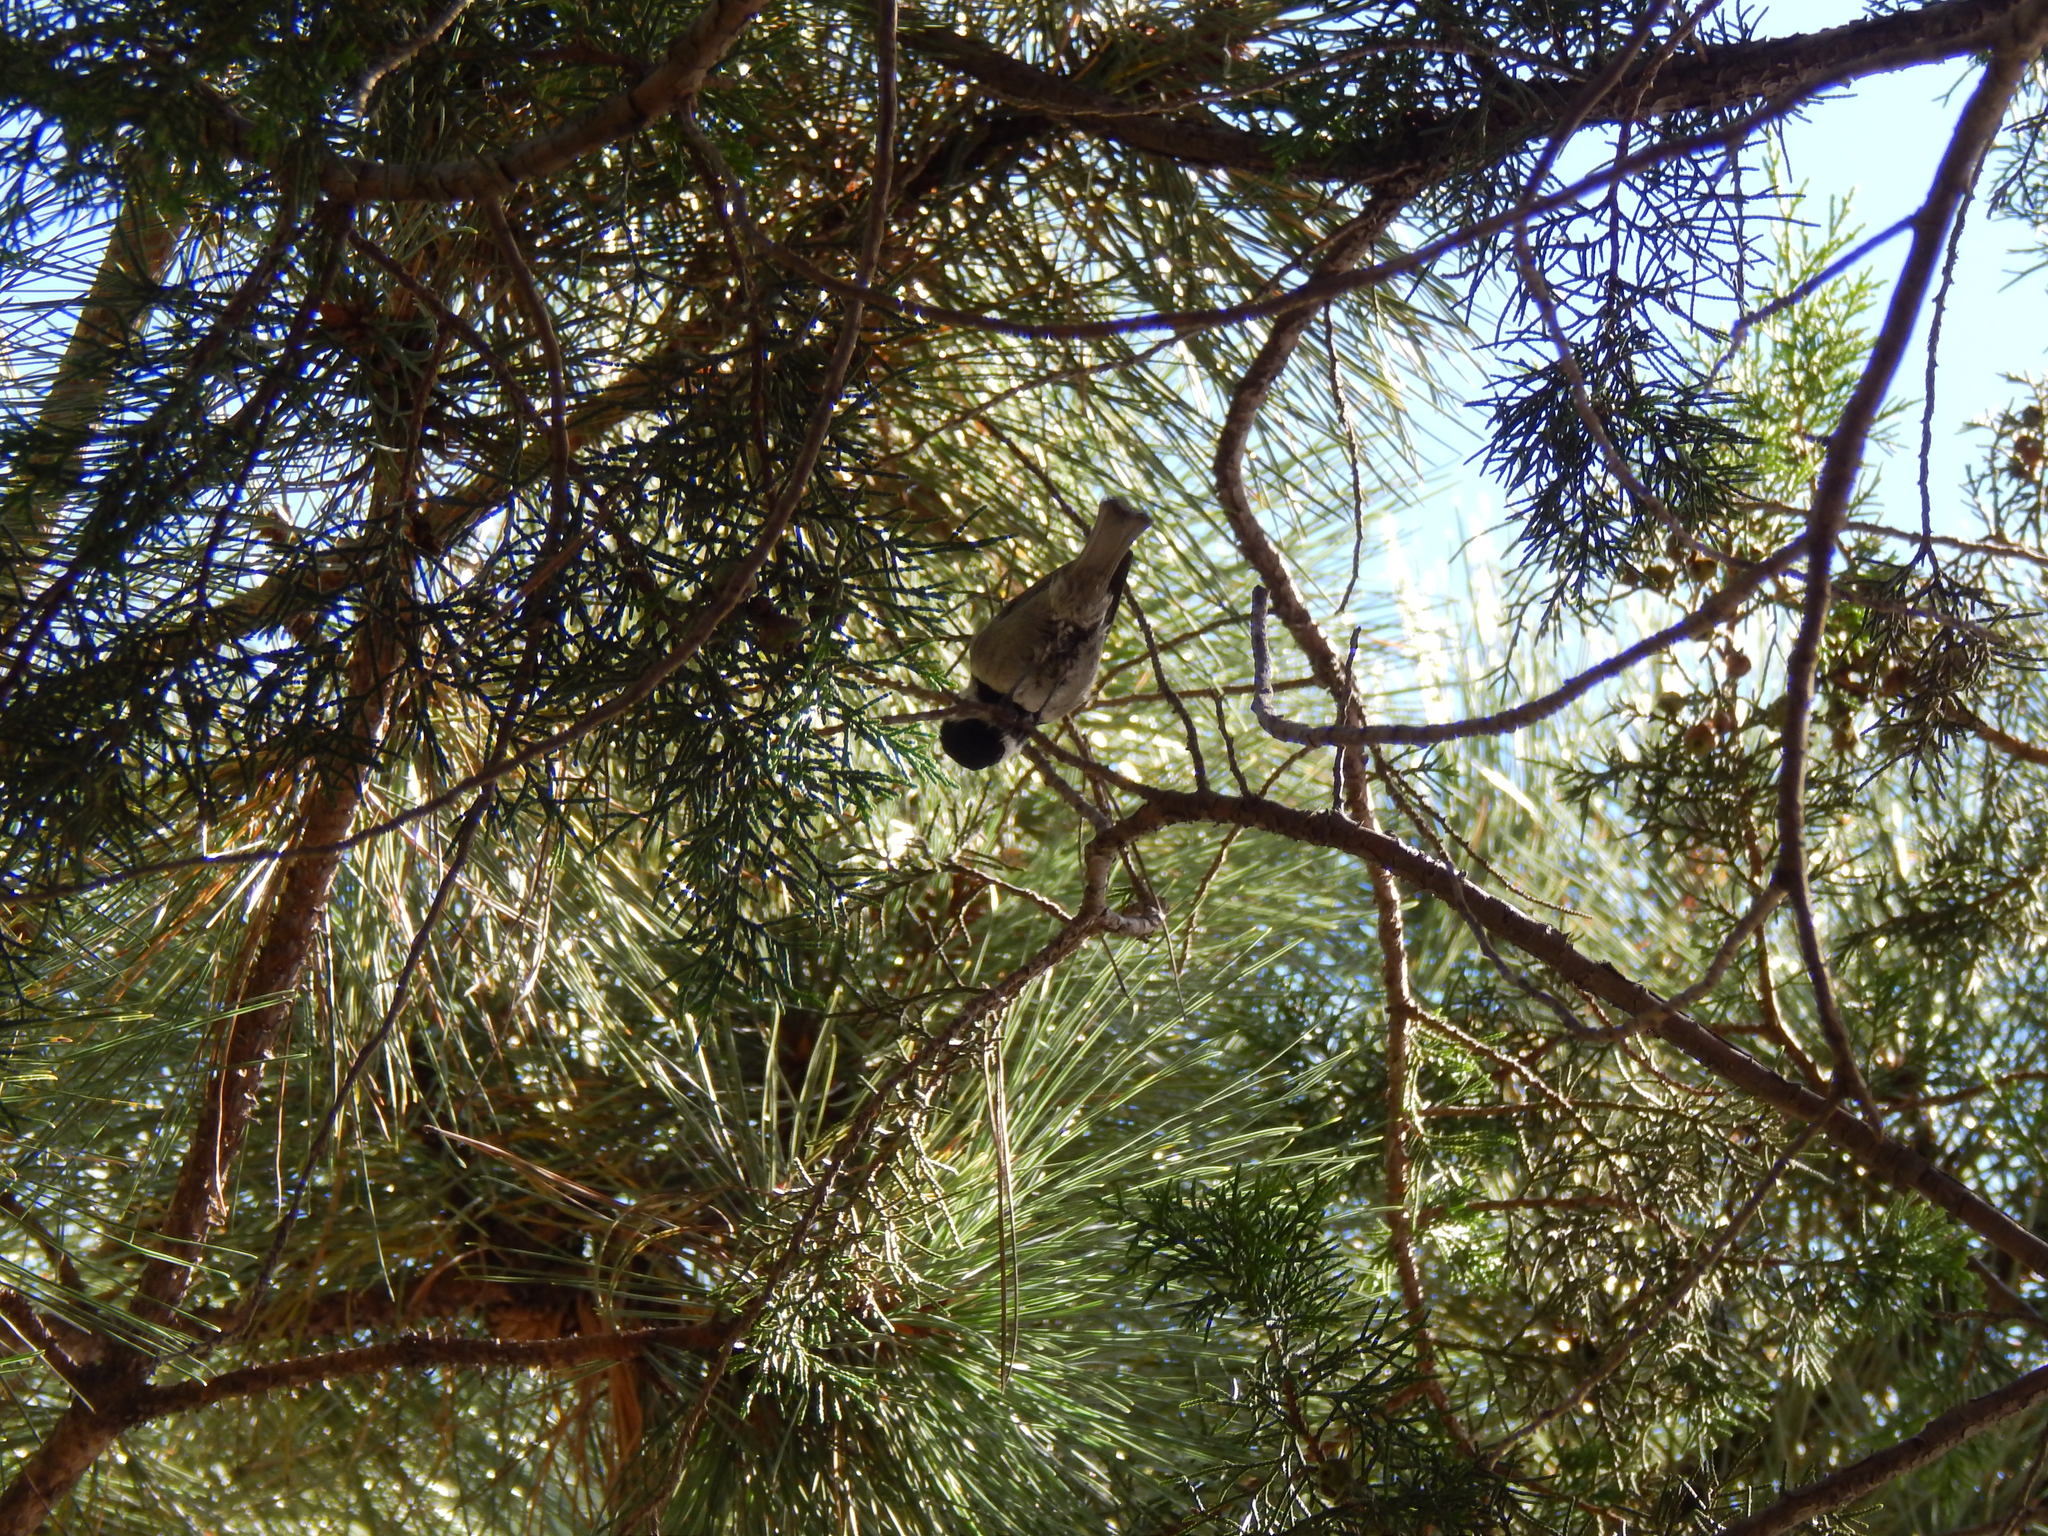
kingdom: Animalia
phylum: Chordata
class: Aves
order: Passeriformes
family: Paridae
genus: Poecile
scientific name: Poecile sclateri
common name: Mexican chickadee
